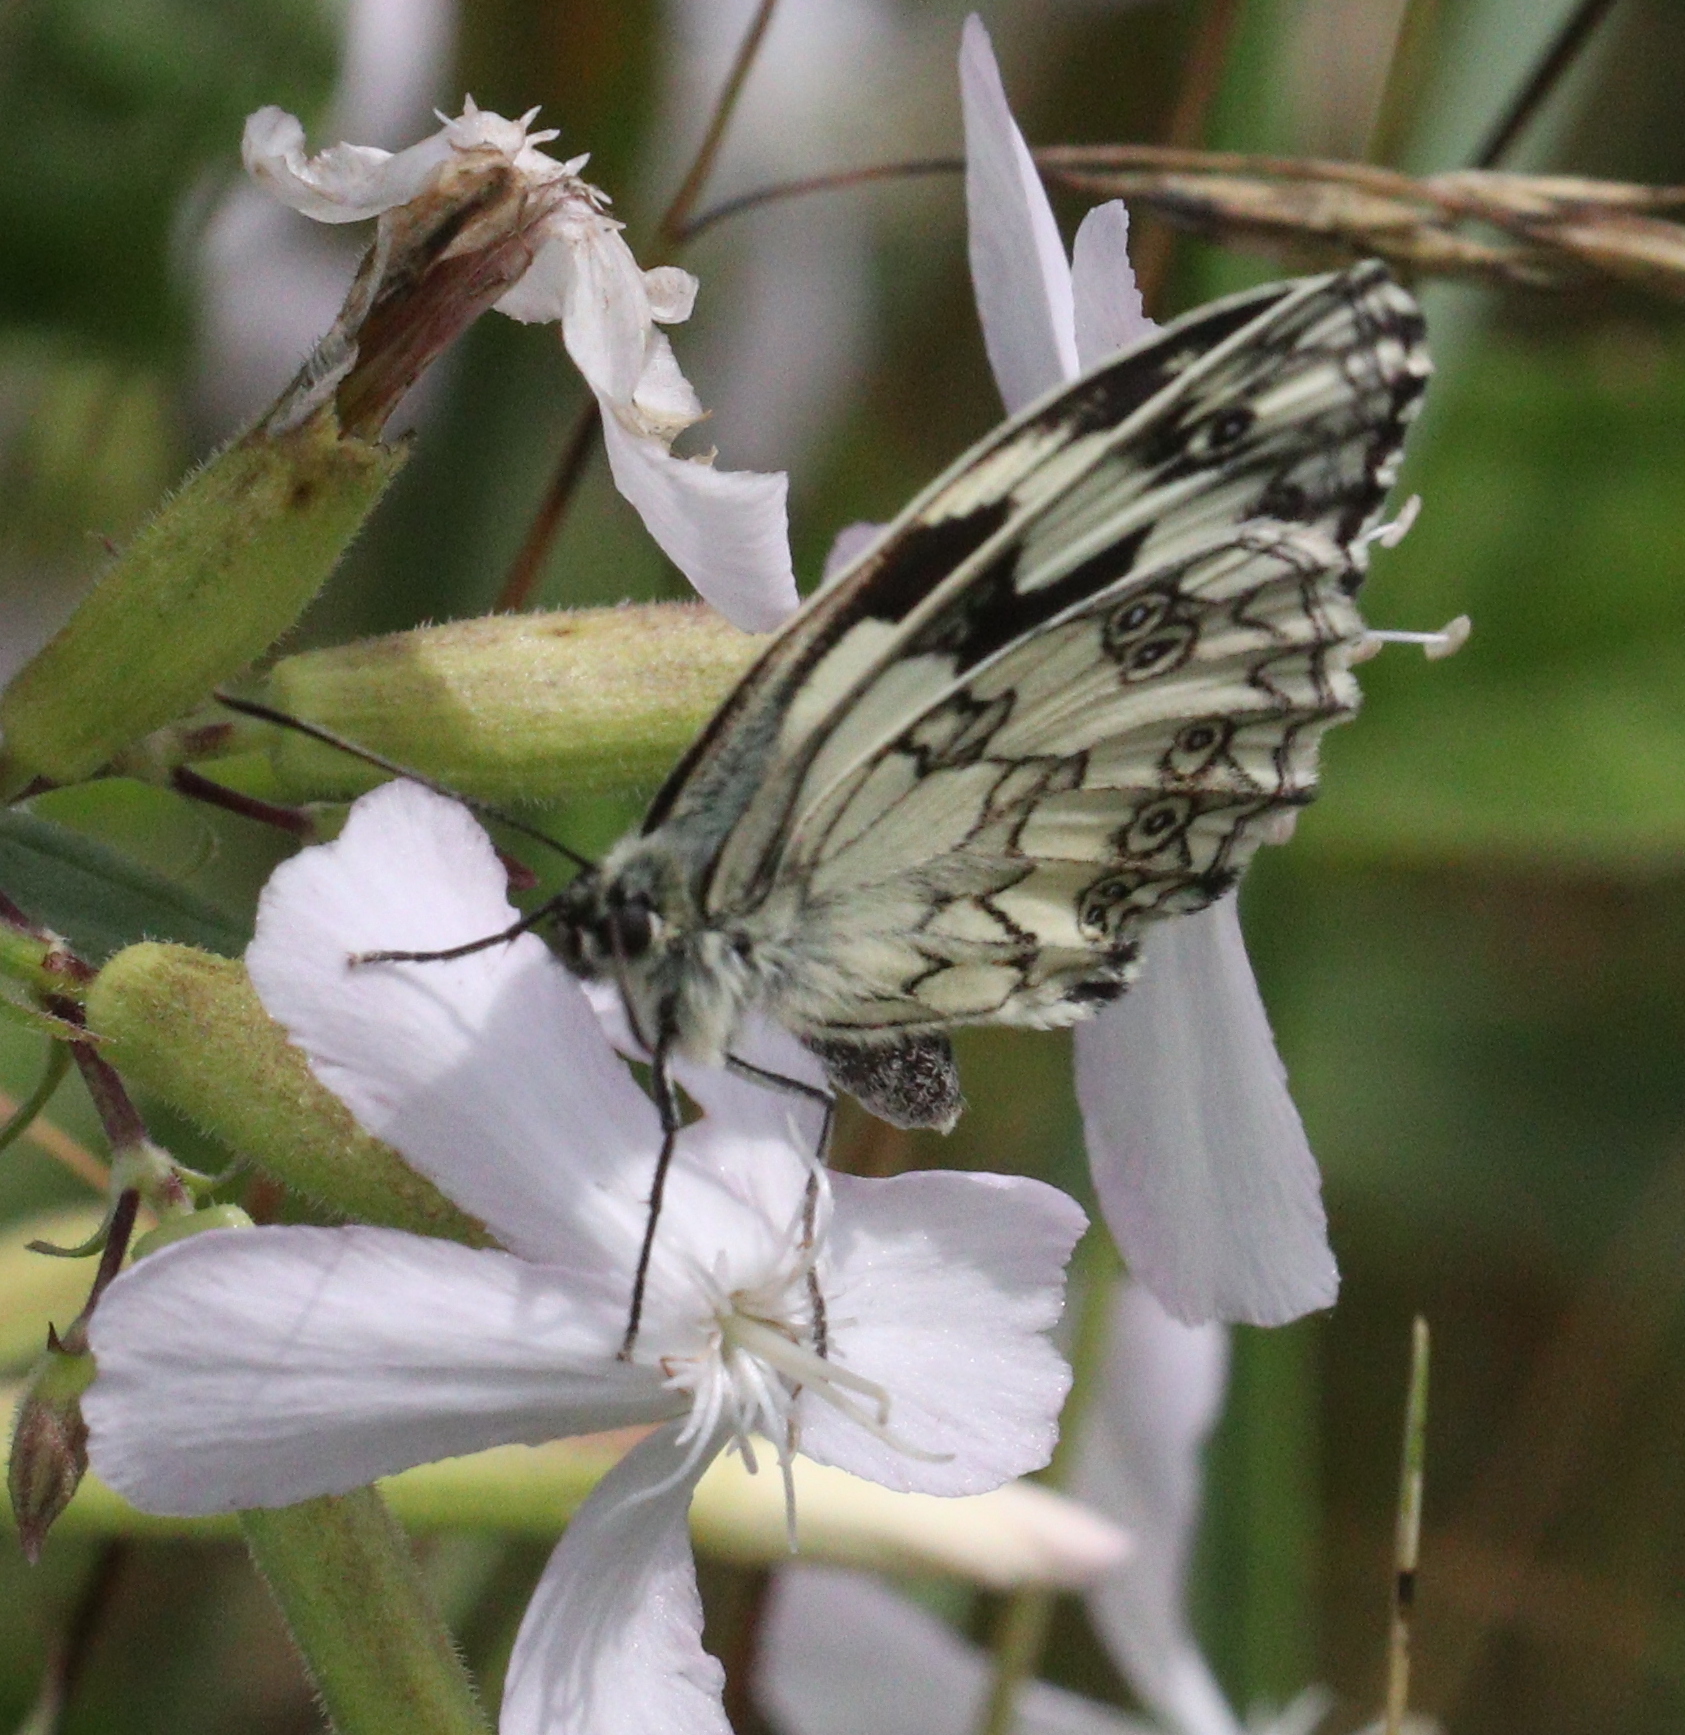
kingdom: Animalia
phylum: Arthropoda
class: Insecta
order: Lepidoptera
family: Nymphalidae
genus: Melanargia
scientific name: Melanargia galathea
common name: Marbled white
